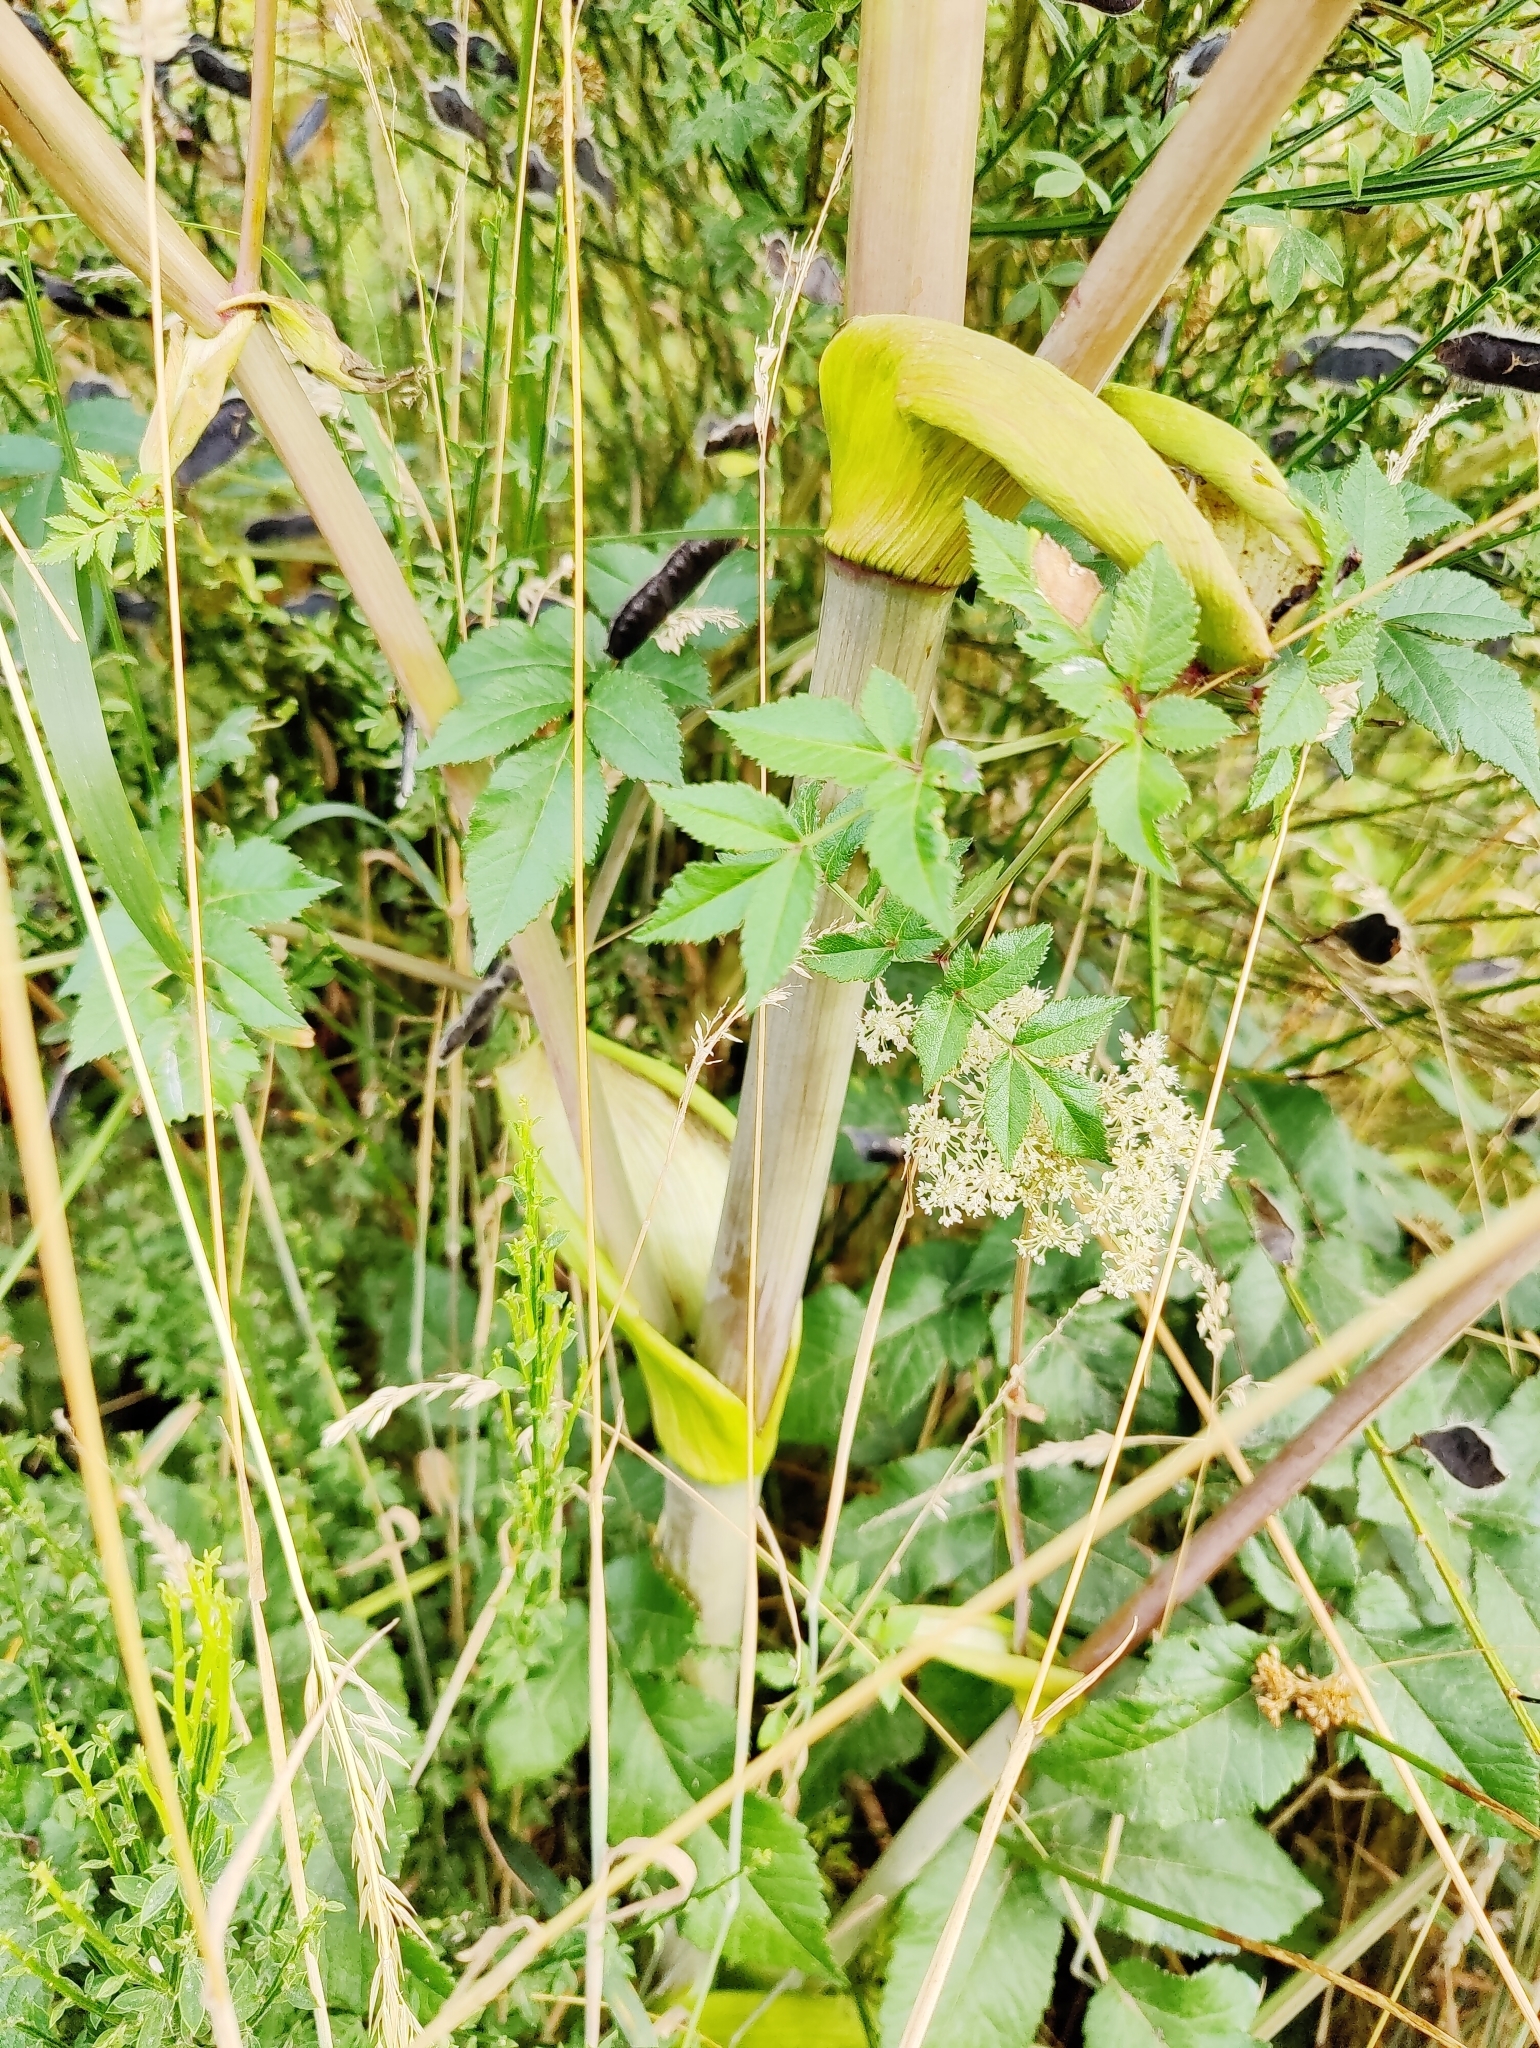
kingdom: Plantae
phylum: Tracheophyta
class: Magnoliopsida
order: Apiales
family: Apiaceae
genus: Angelica
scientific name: Angelica sylvestris
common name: Wild angelica
